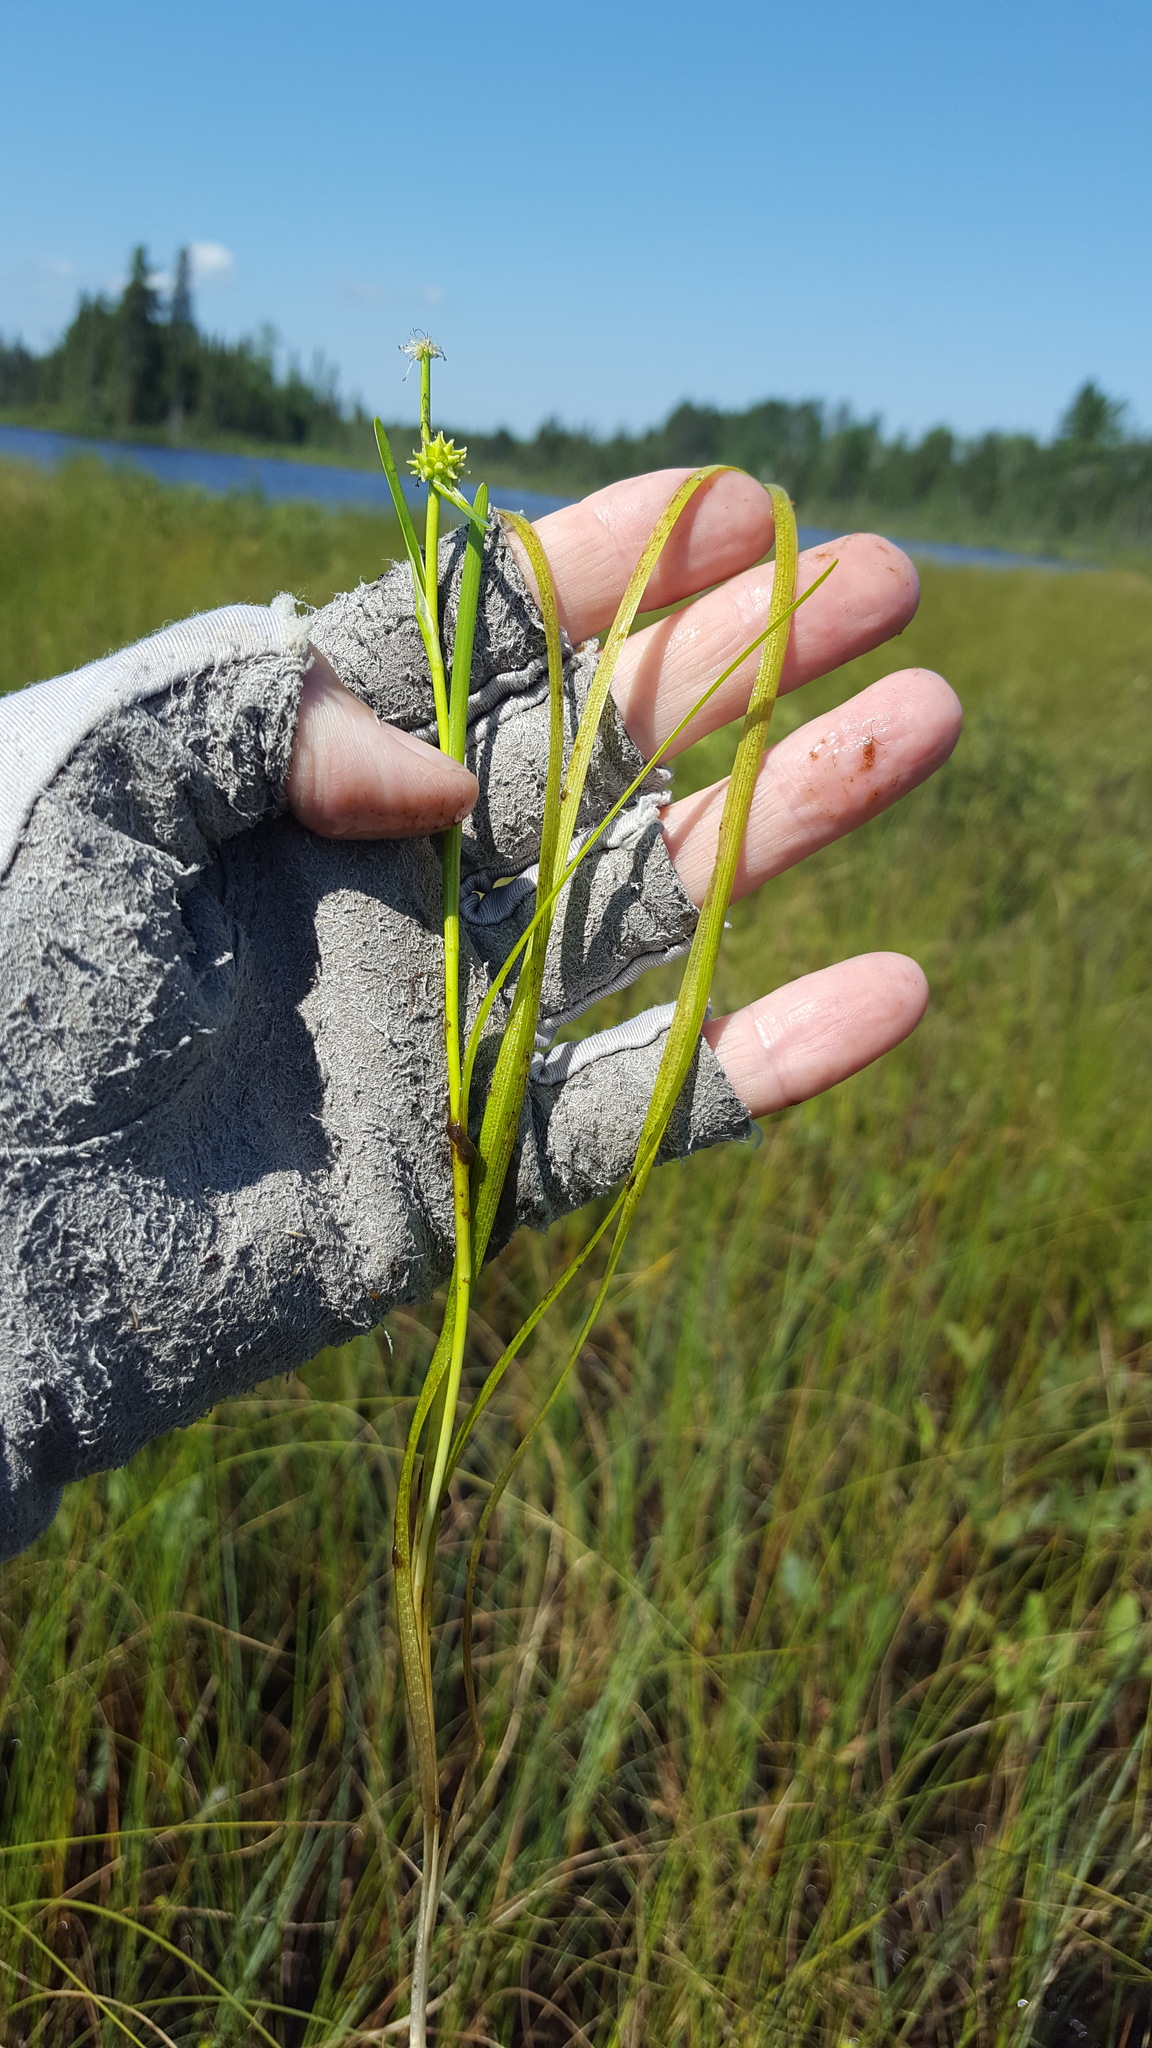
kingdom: Plantae
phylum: Tracheophyta
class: Liliopsida
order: Poales
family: Typhaceae
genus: Sparganium
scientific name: Sparganium natans
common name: Least bur-reed
